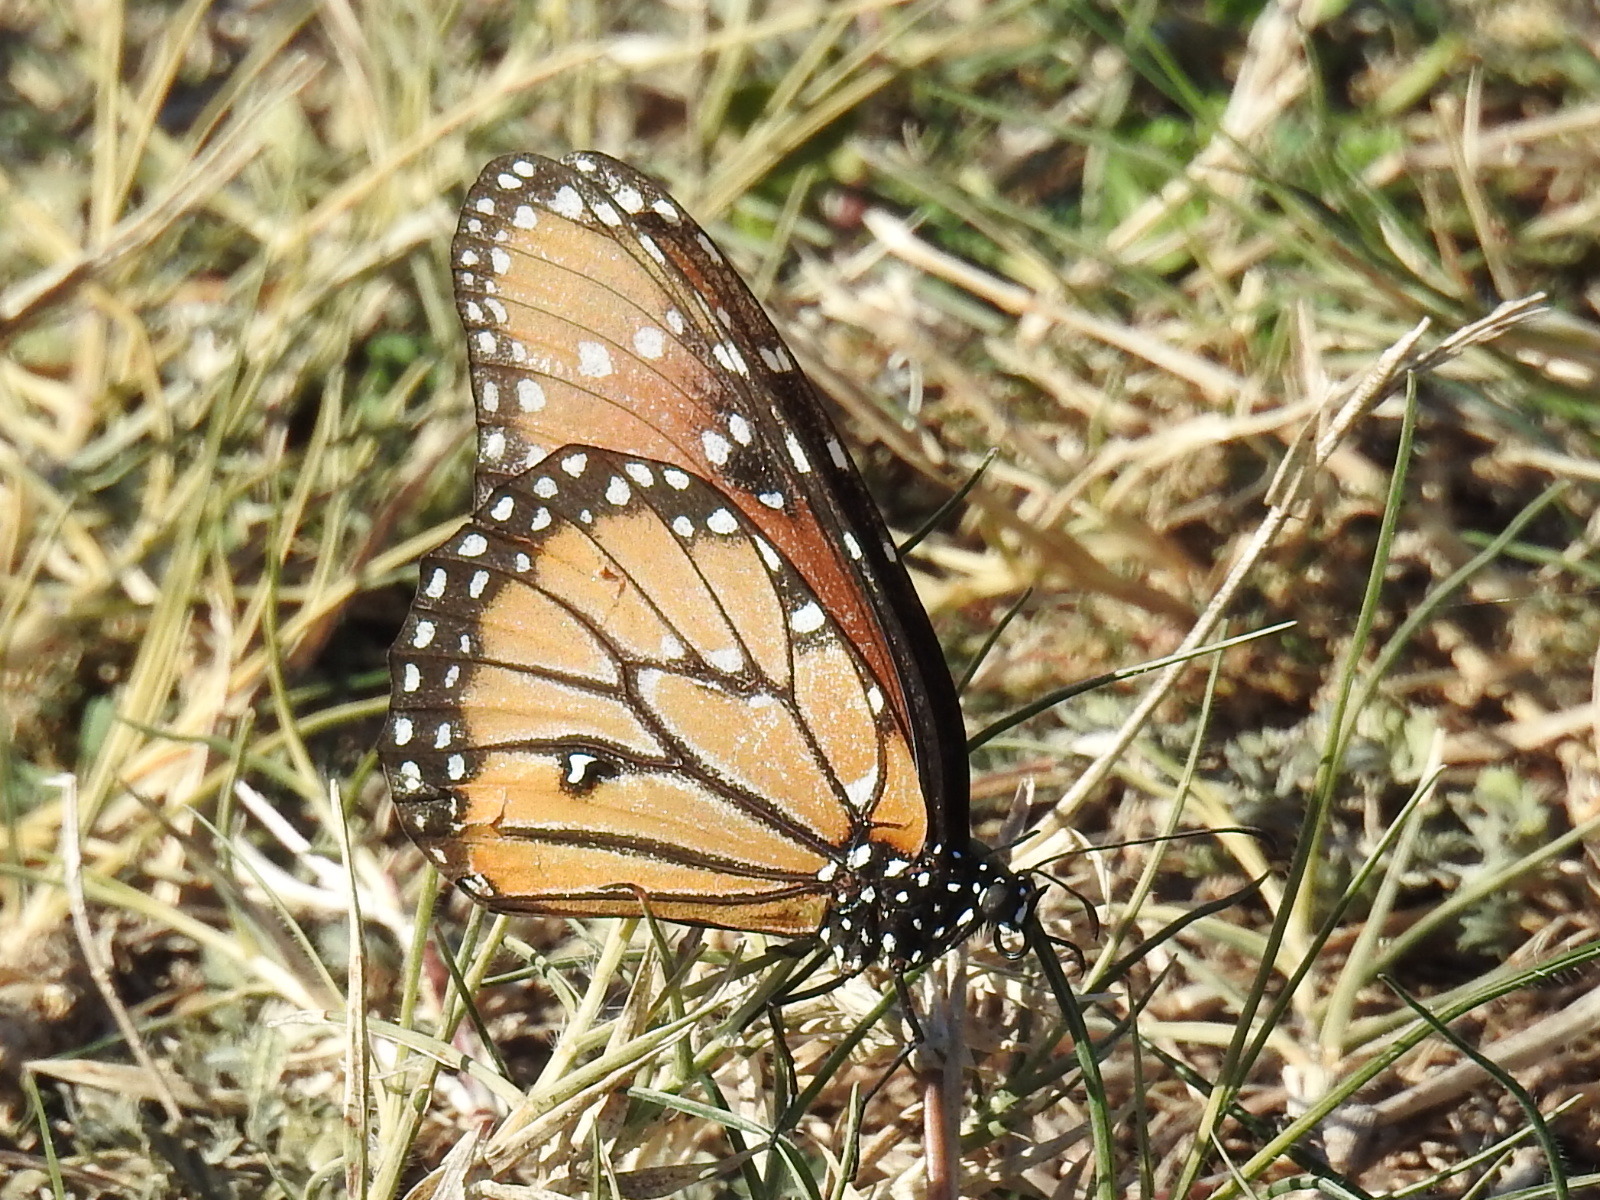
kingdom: Animalia
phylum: Arthropoda
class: Insecta
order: Lepidoptera
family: Nymphalidae
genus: Danaus
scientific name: Danaus gilippus
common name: Queen
